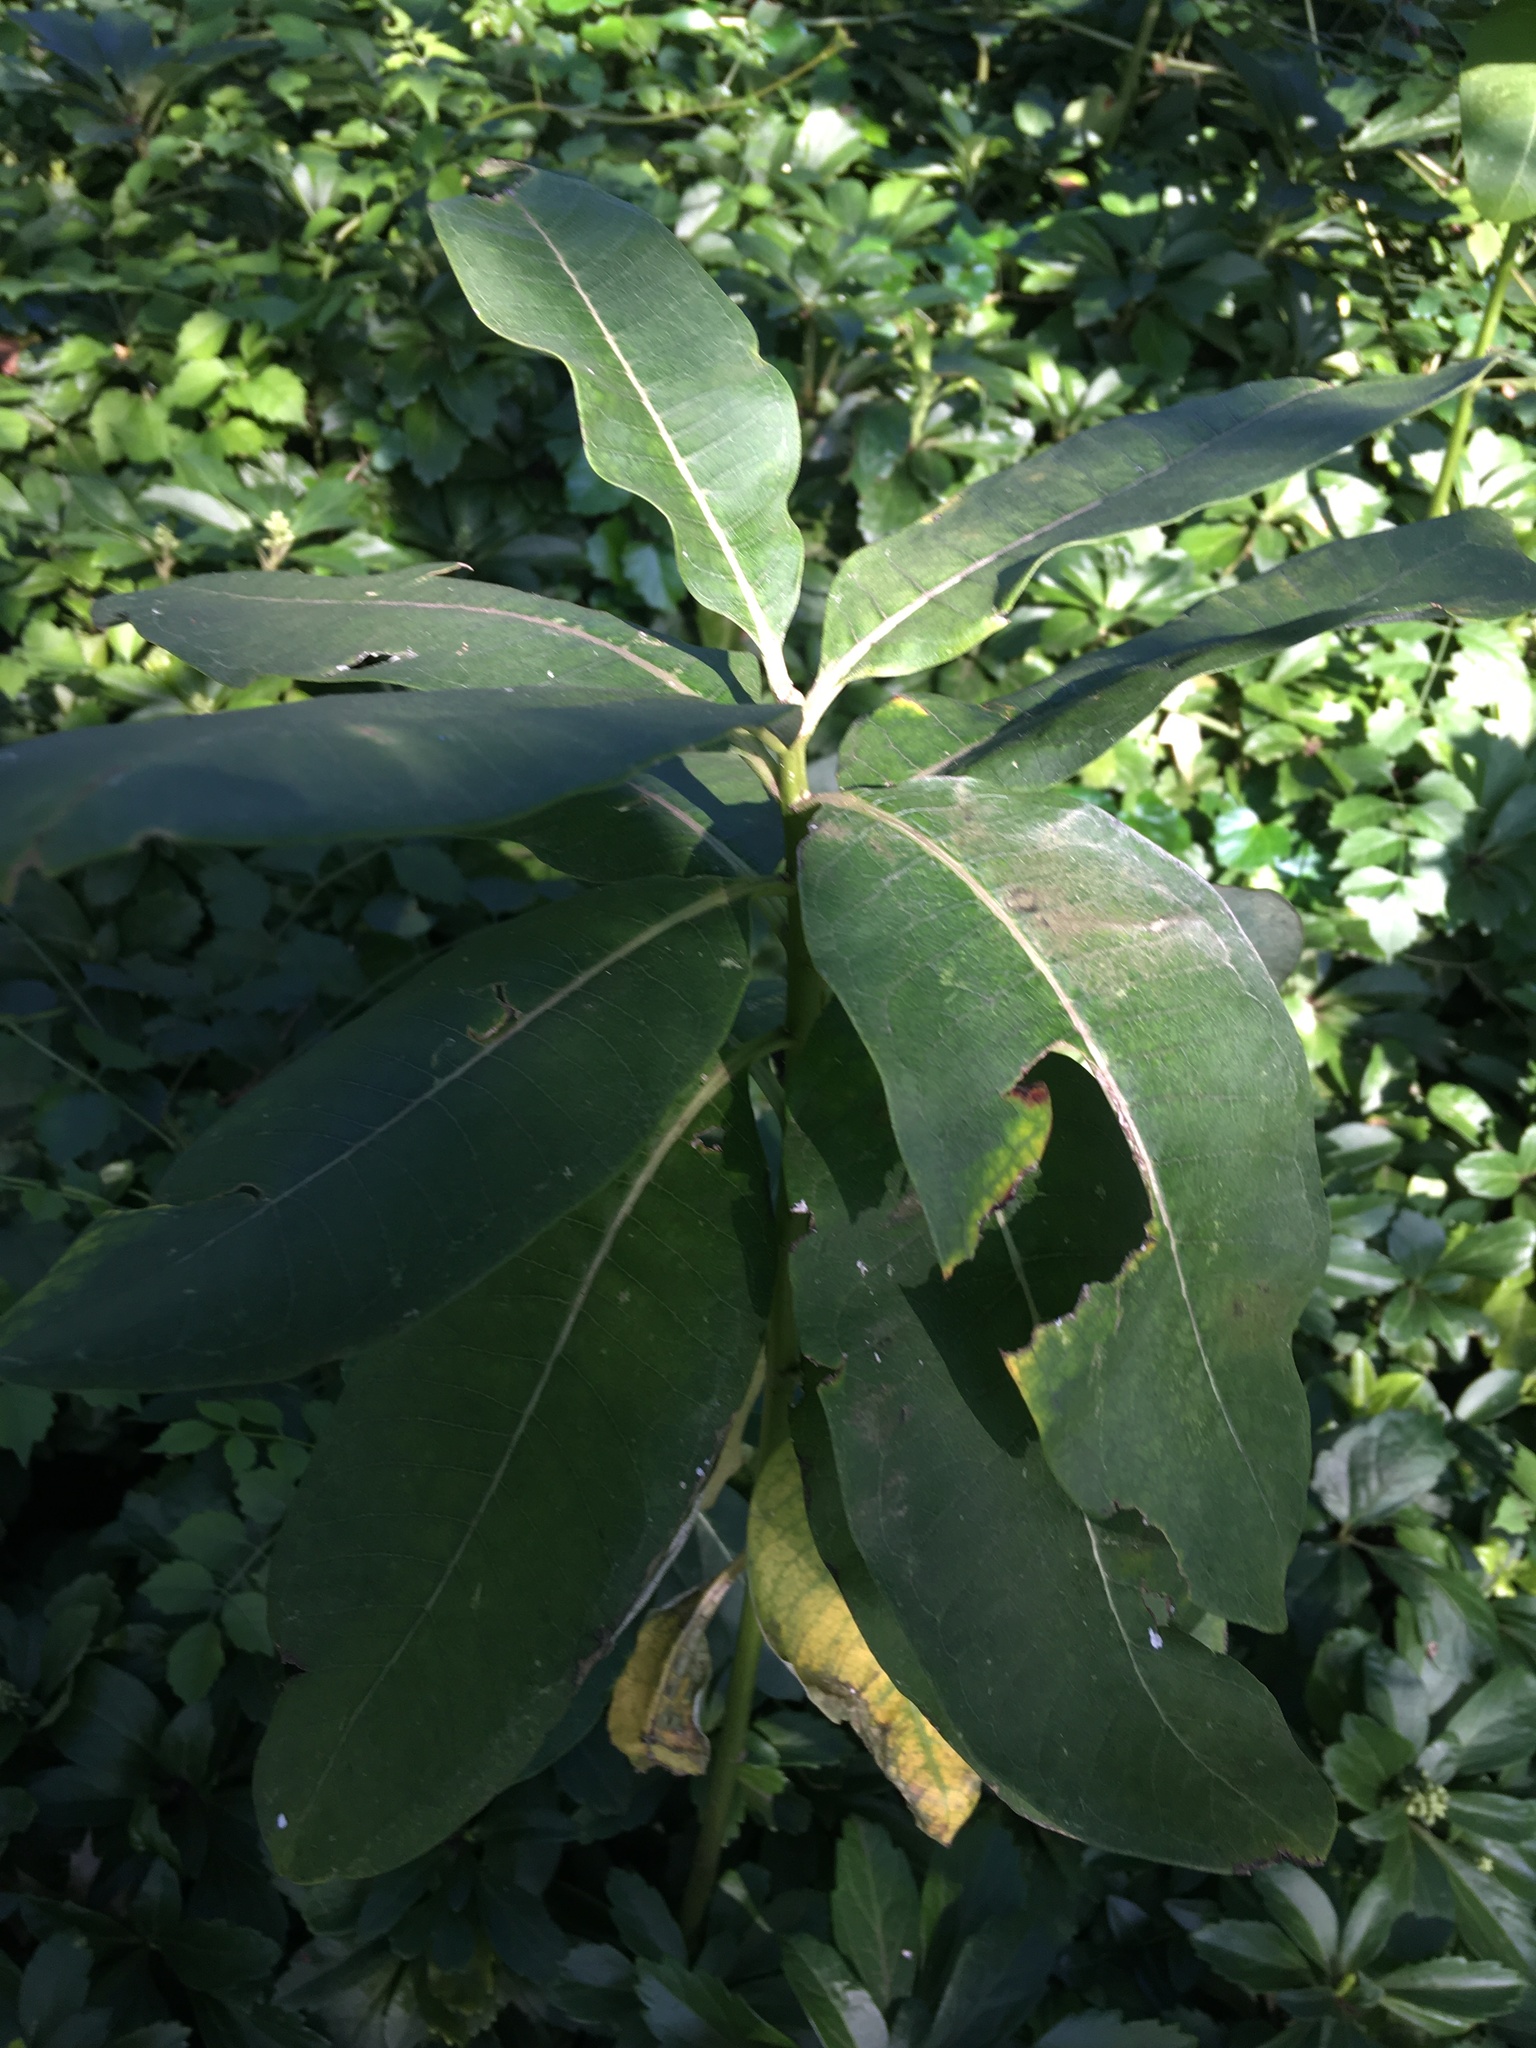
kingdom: Plantae
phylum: Tracheophyta
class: Magnoliopsida
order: Gentianales
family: Apocynaceae
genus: Asclepias
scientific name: Asclepias syriaca
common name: Common milkweed
